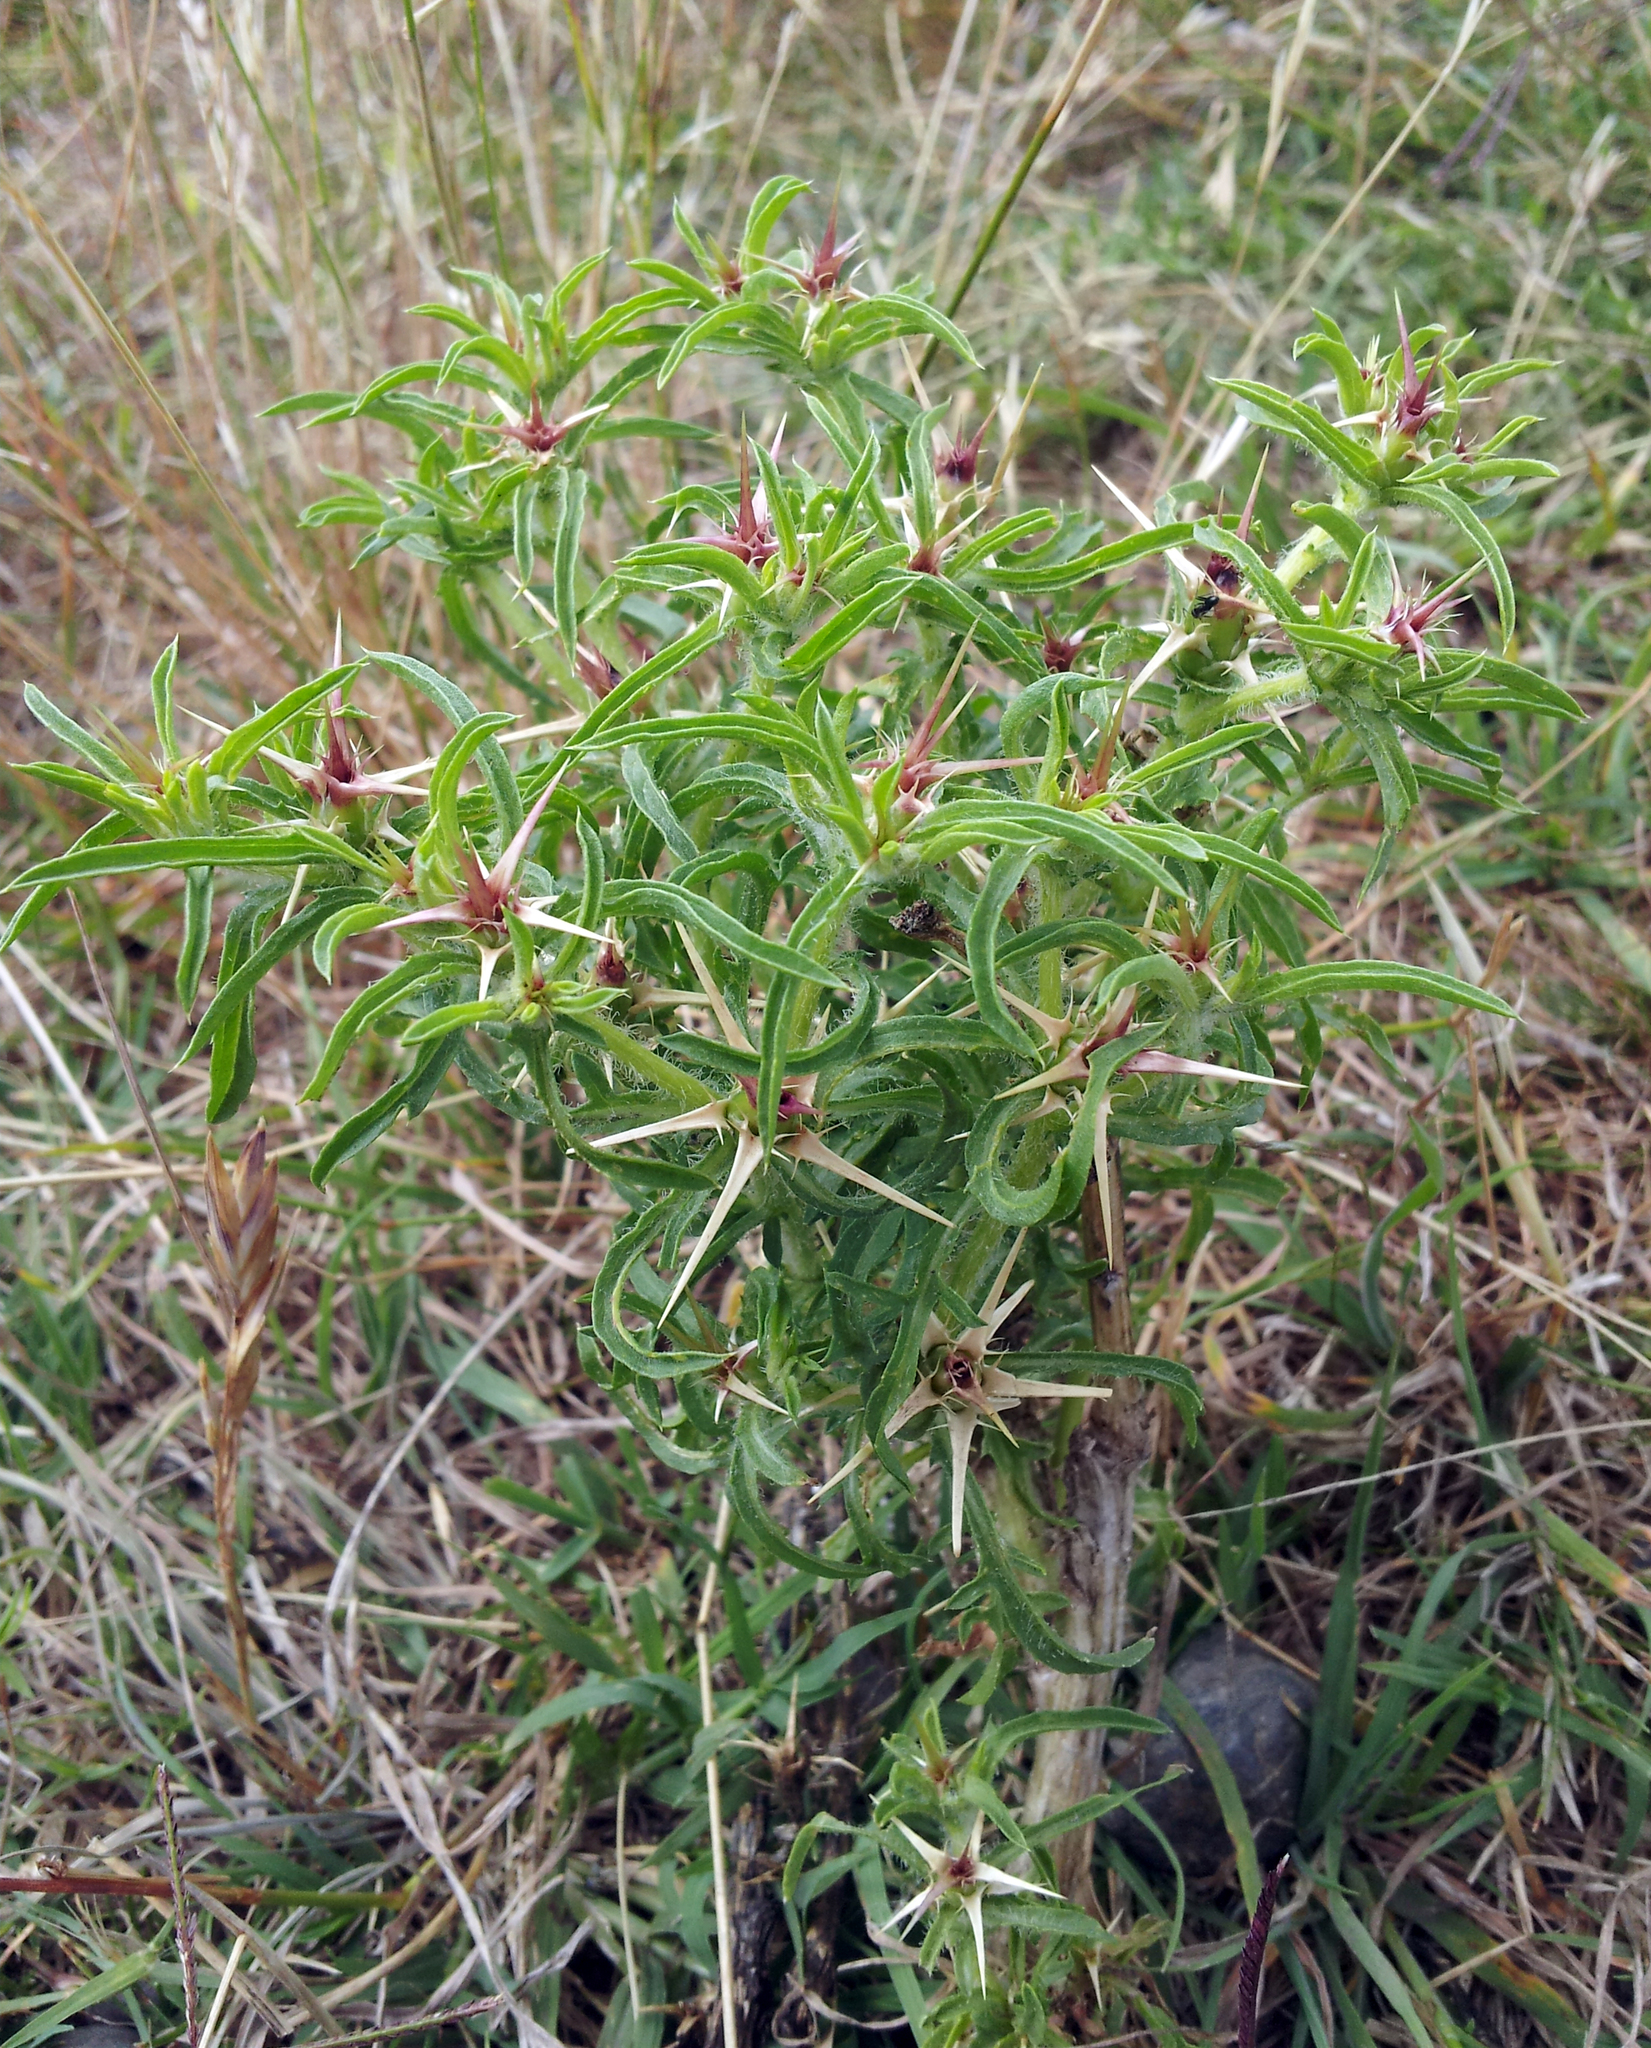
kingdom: Plantae
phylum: Tracheophyta
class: Magnoliopsida
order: Asterales
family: Asteraceae
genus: Centaurea
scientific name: Centaurea calcitrapa
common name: Red star-thistle
